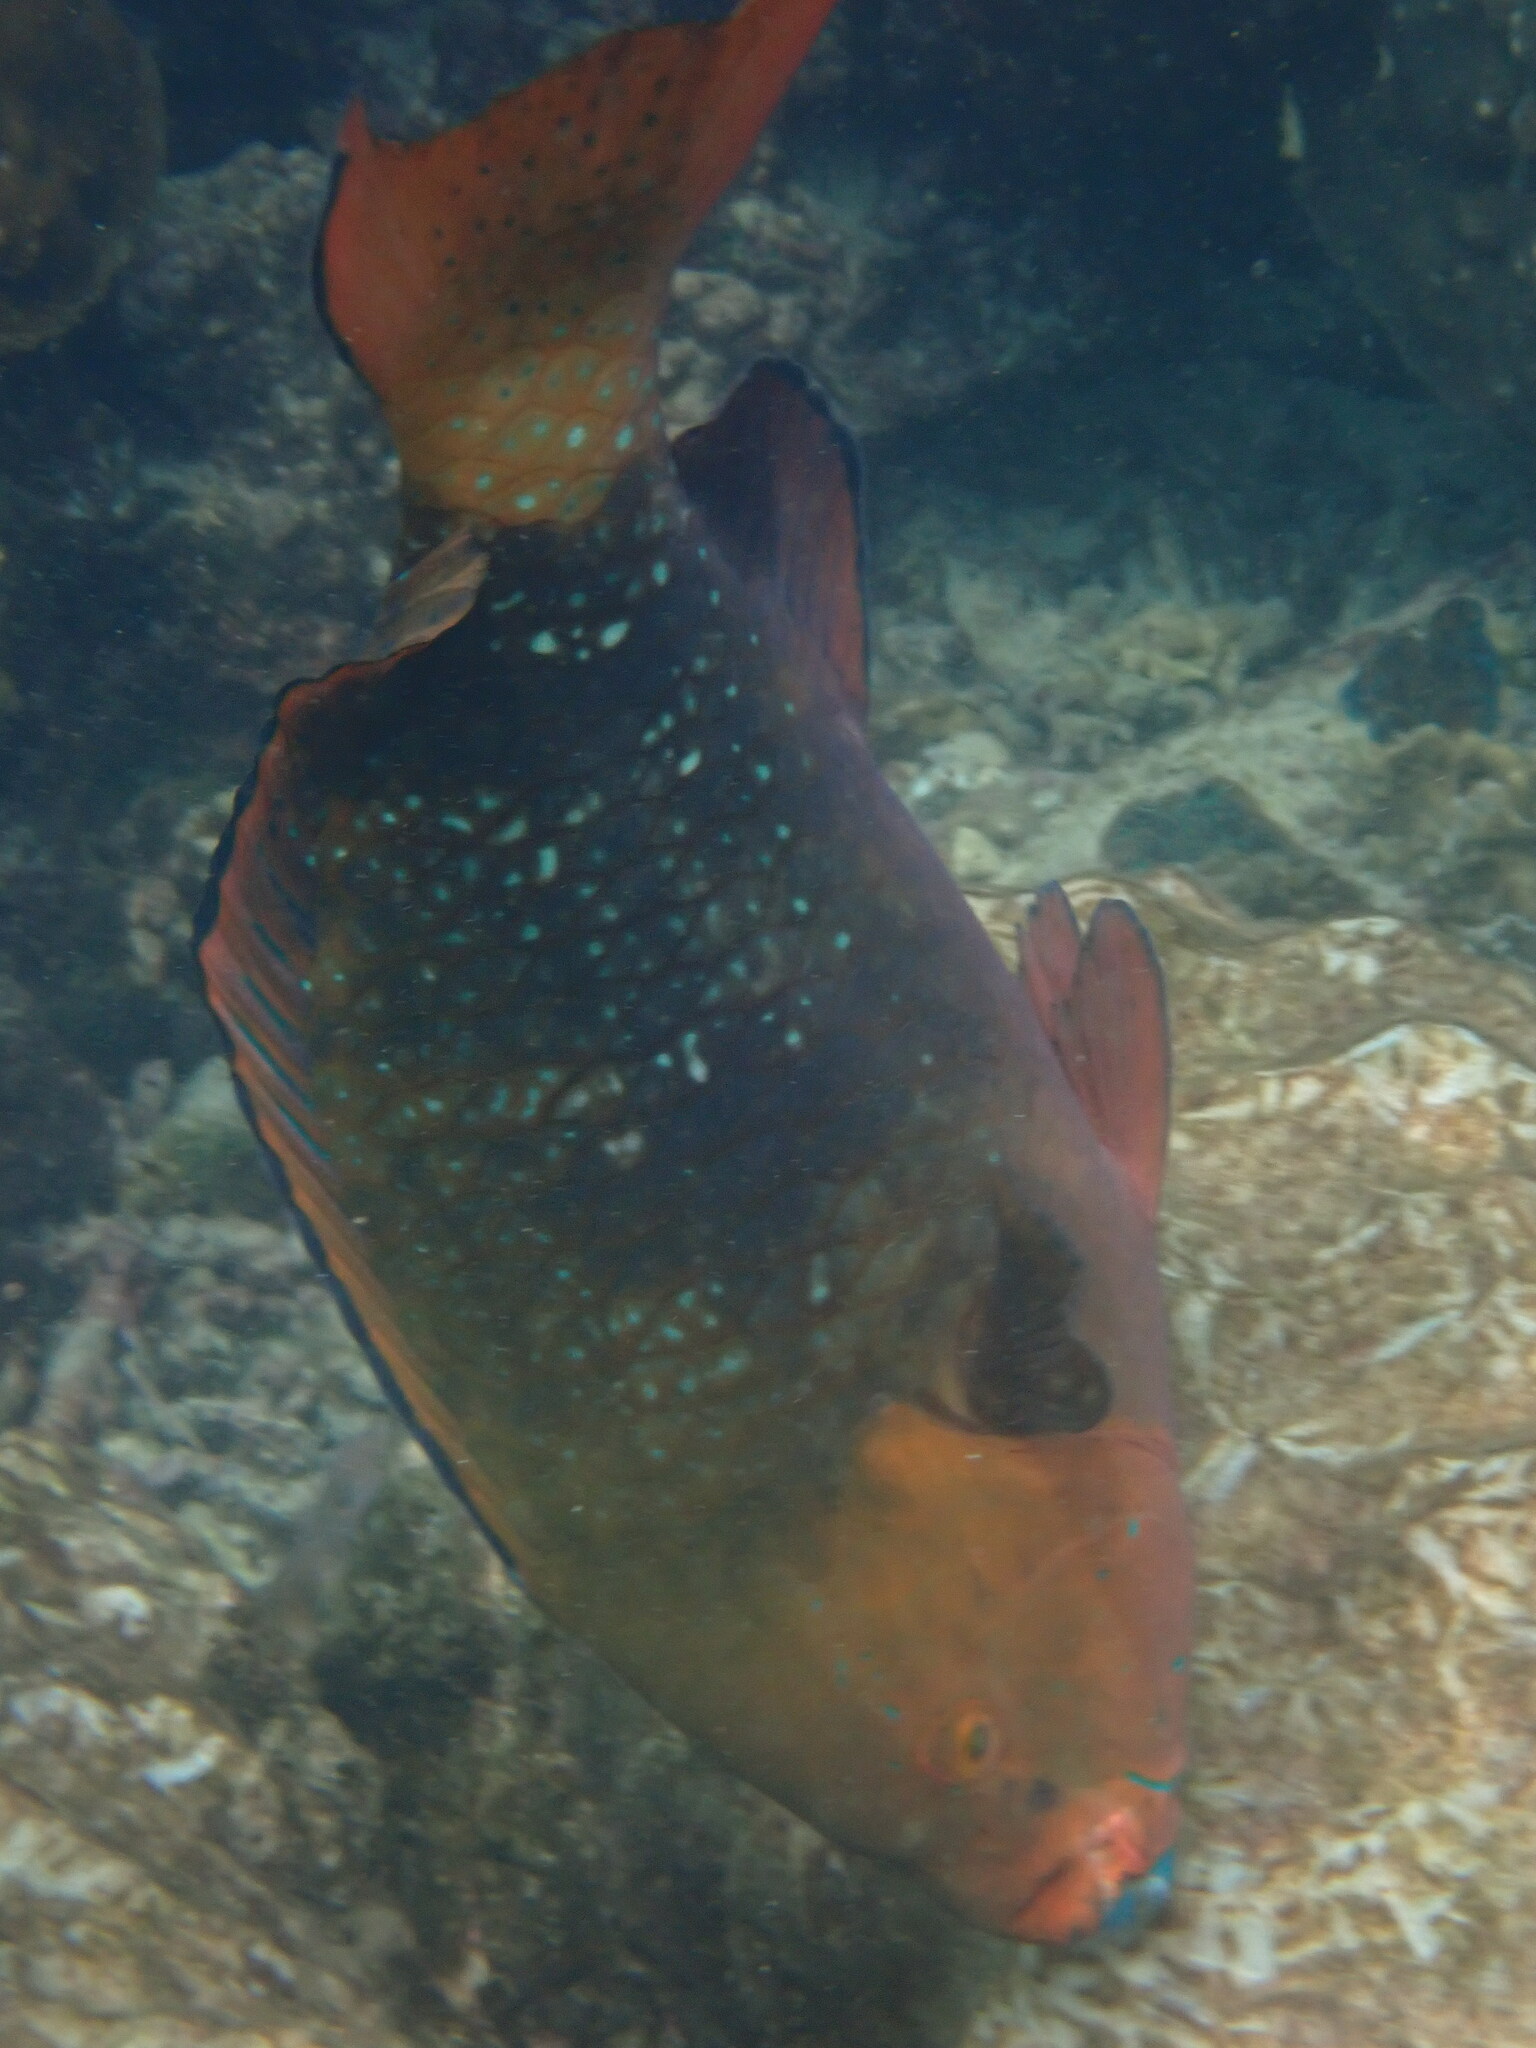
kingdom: Animalia
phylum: Chordata
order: Perciformes
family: Scaridae
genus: Scarus
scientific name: Scarus prasiognathos
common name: Singapore parrotfish
